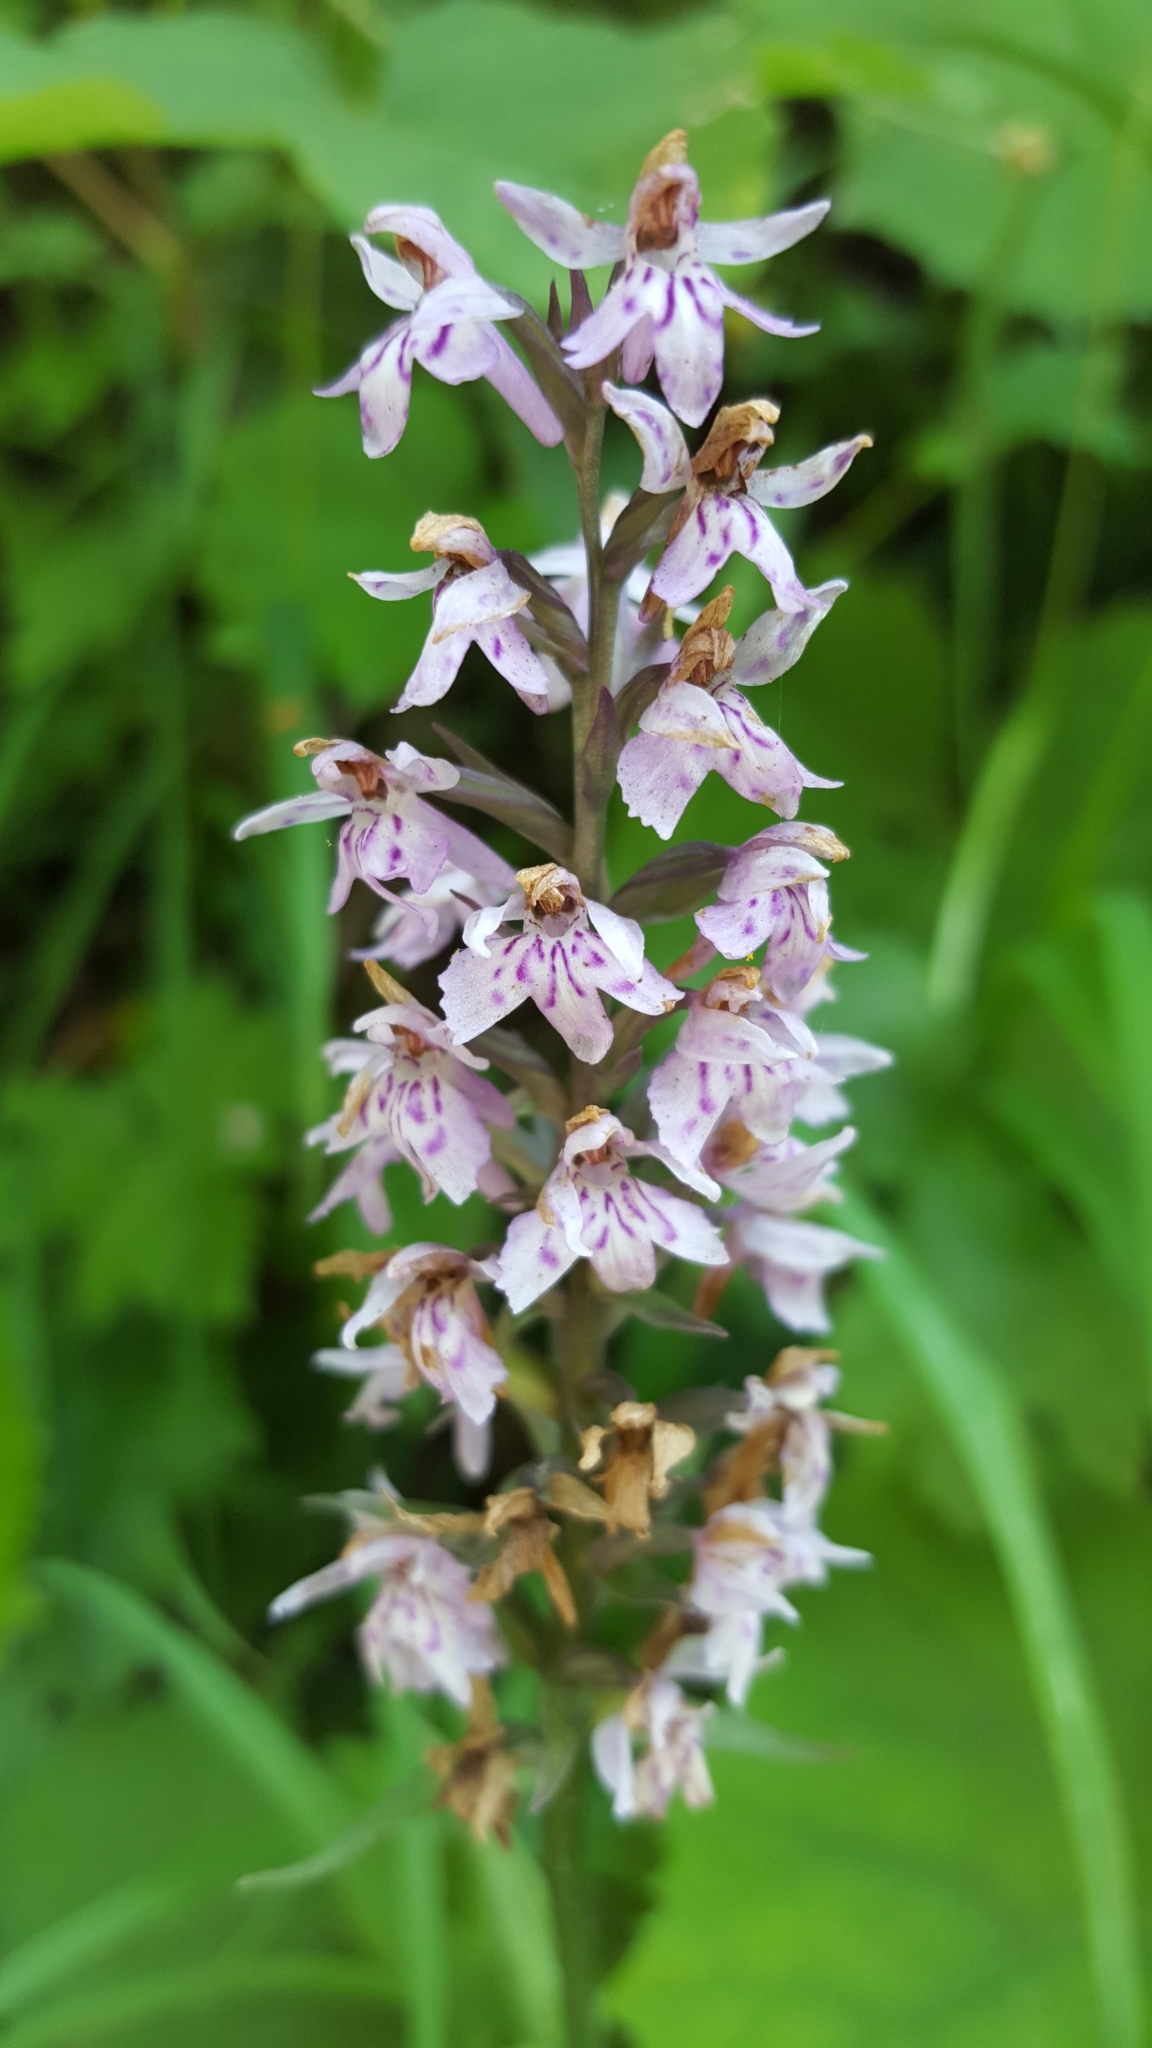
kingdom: Plantae
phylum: Tracheophyta
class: Liliopsida
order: Asparagales
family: Orchidaceae
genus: Dactylorhiza
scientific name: Dactylorhiza maculata
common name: Heath spotted-orchid
